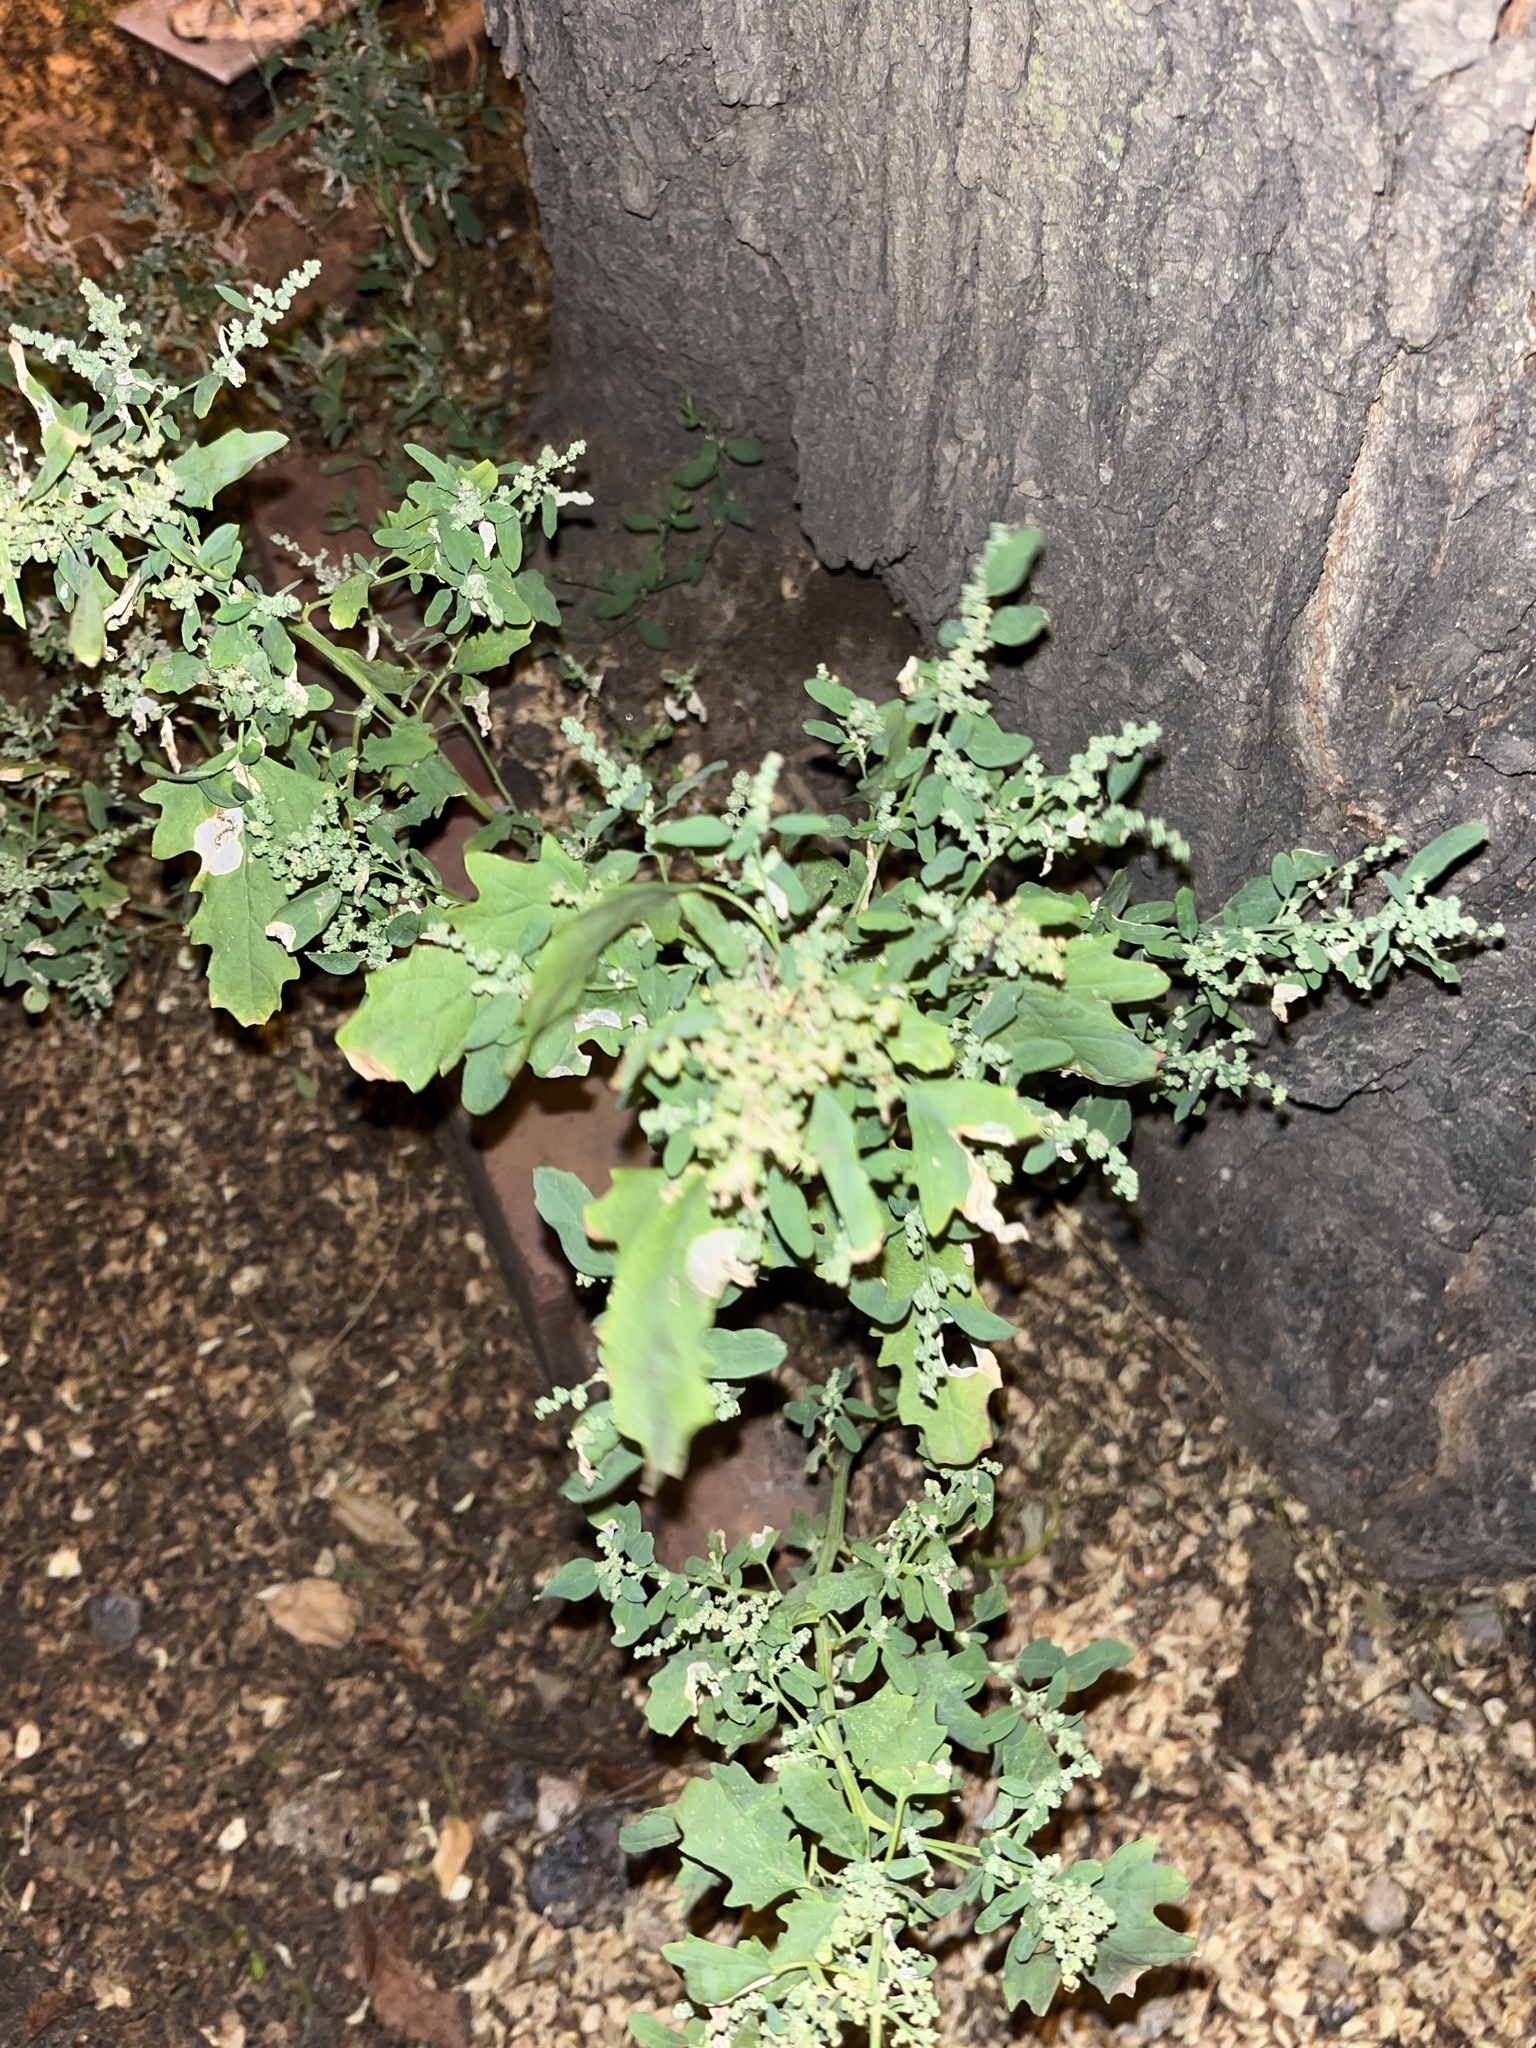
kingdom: Plantae
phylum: Tracheophyta
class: Magnoliopsida
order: Caryophyllales
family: Amaranthaceae
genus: Chenopodium
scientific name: Chenopodium ficifolium
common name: Fig-leaved goosefoot
